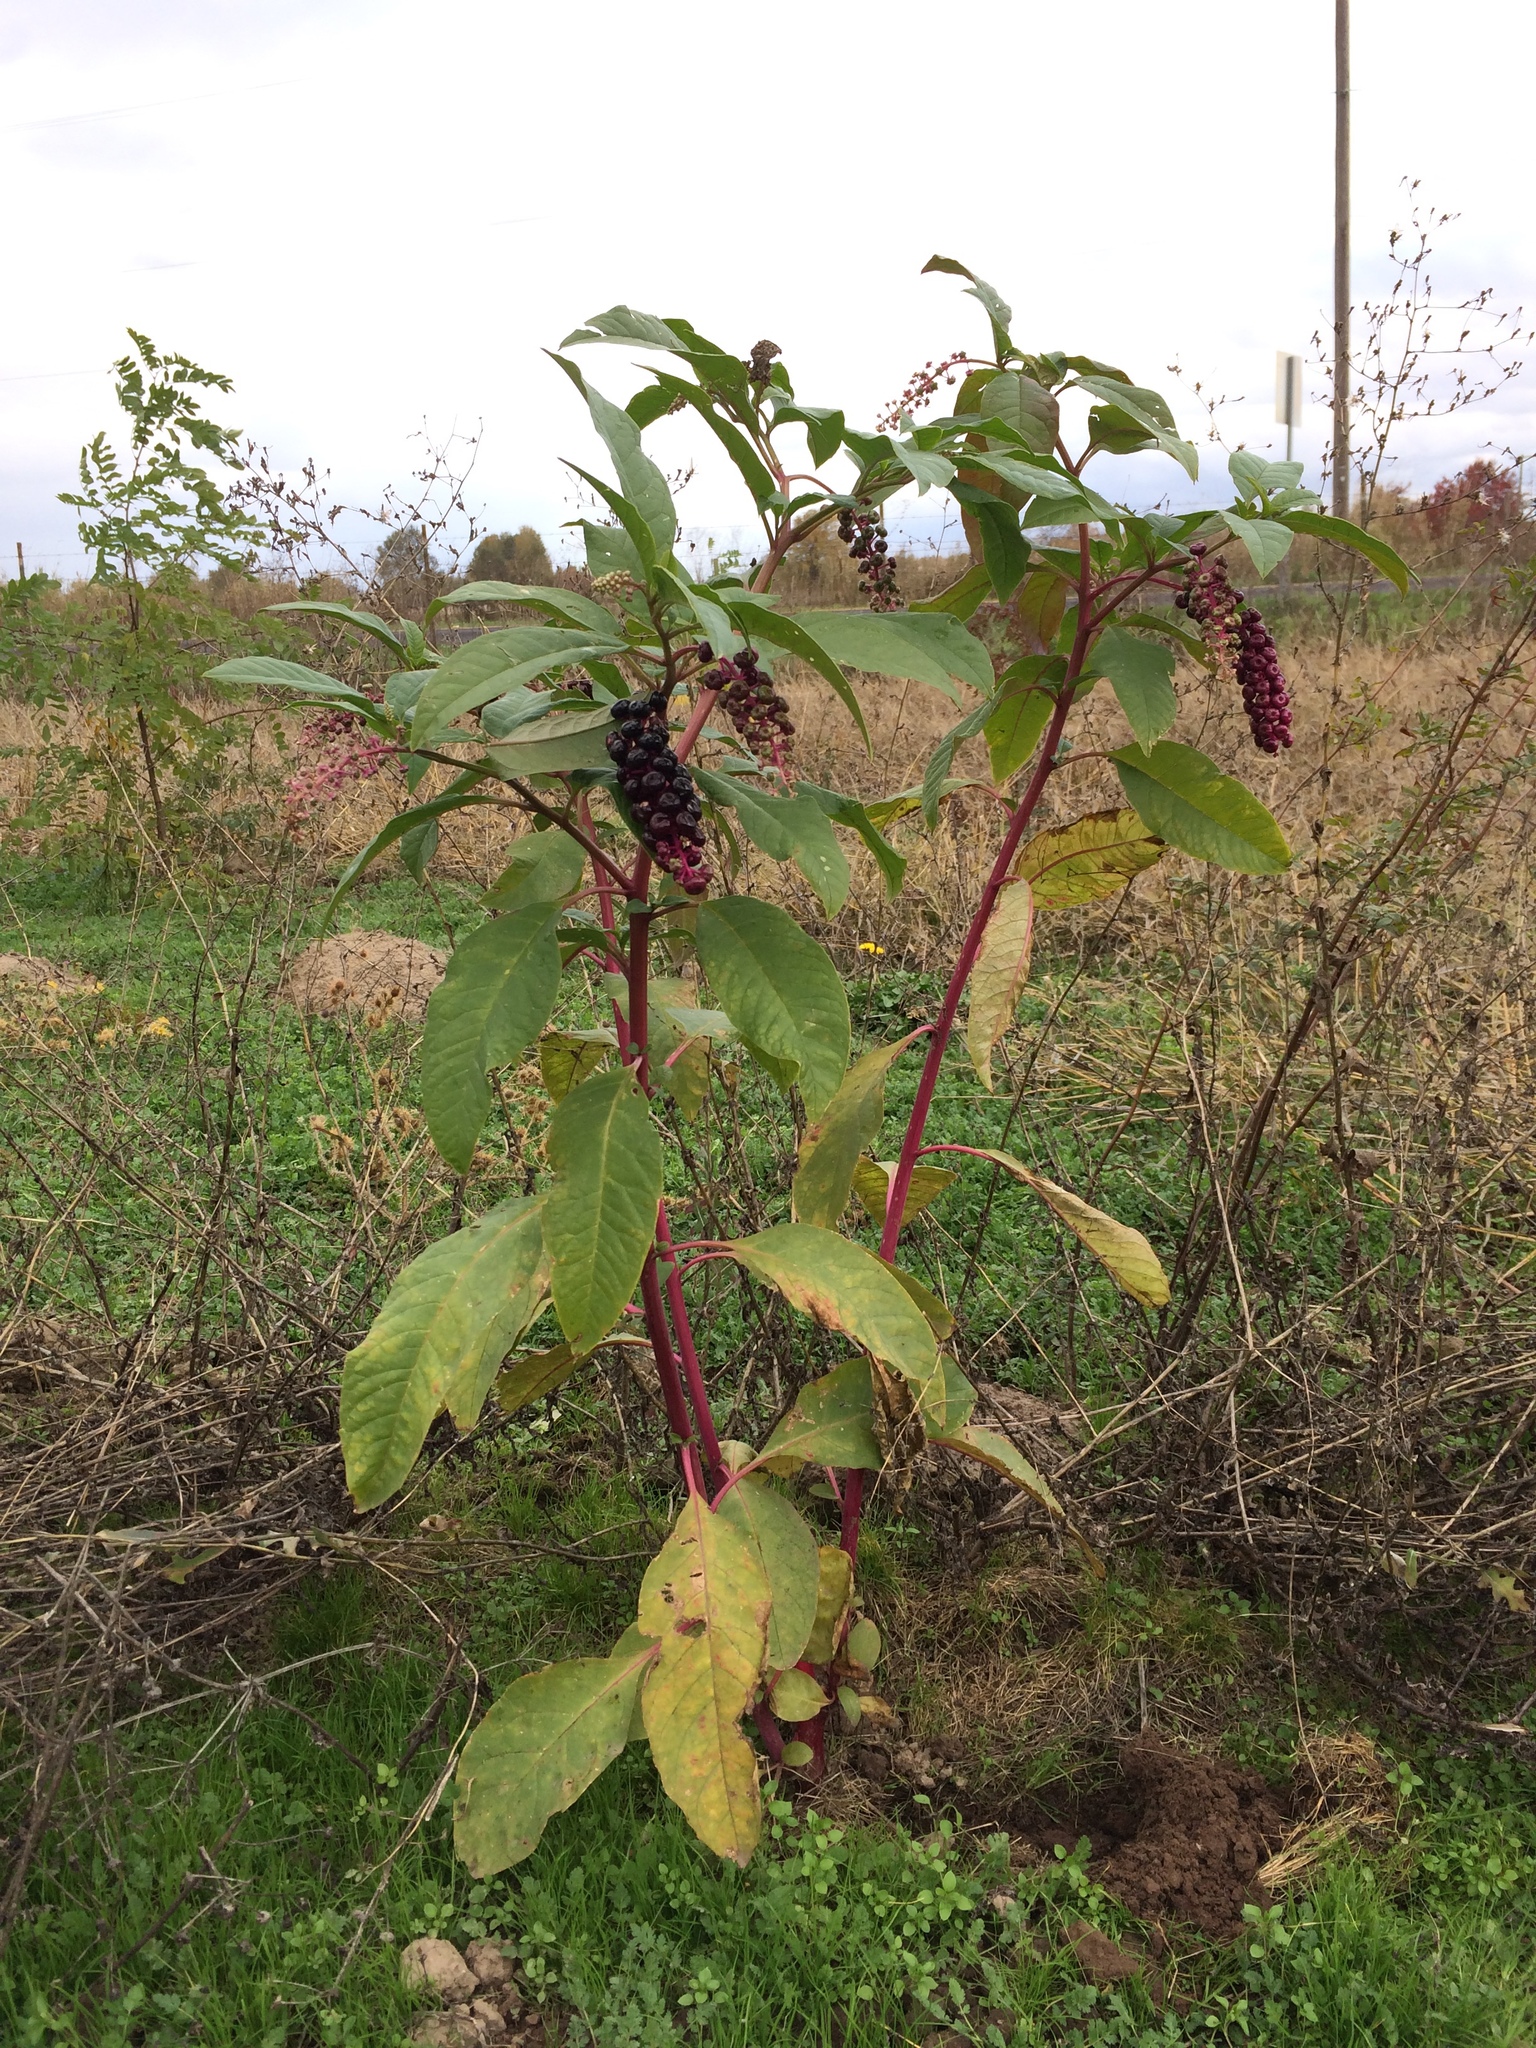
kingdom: Plantae
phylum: Tracheophyta
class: Magnoliopsida
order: Caryophyllales
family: Phytolaccaceae
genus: Phytolacca
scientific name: Phytolacca americana
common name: American pokeweed
